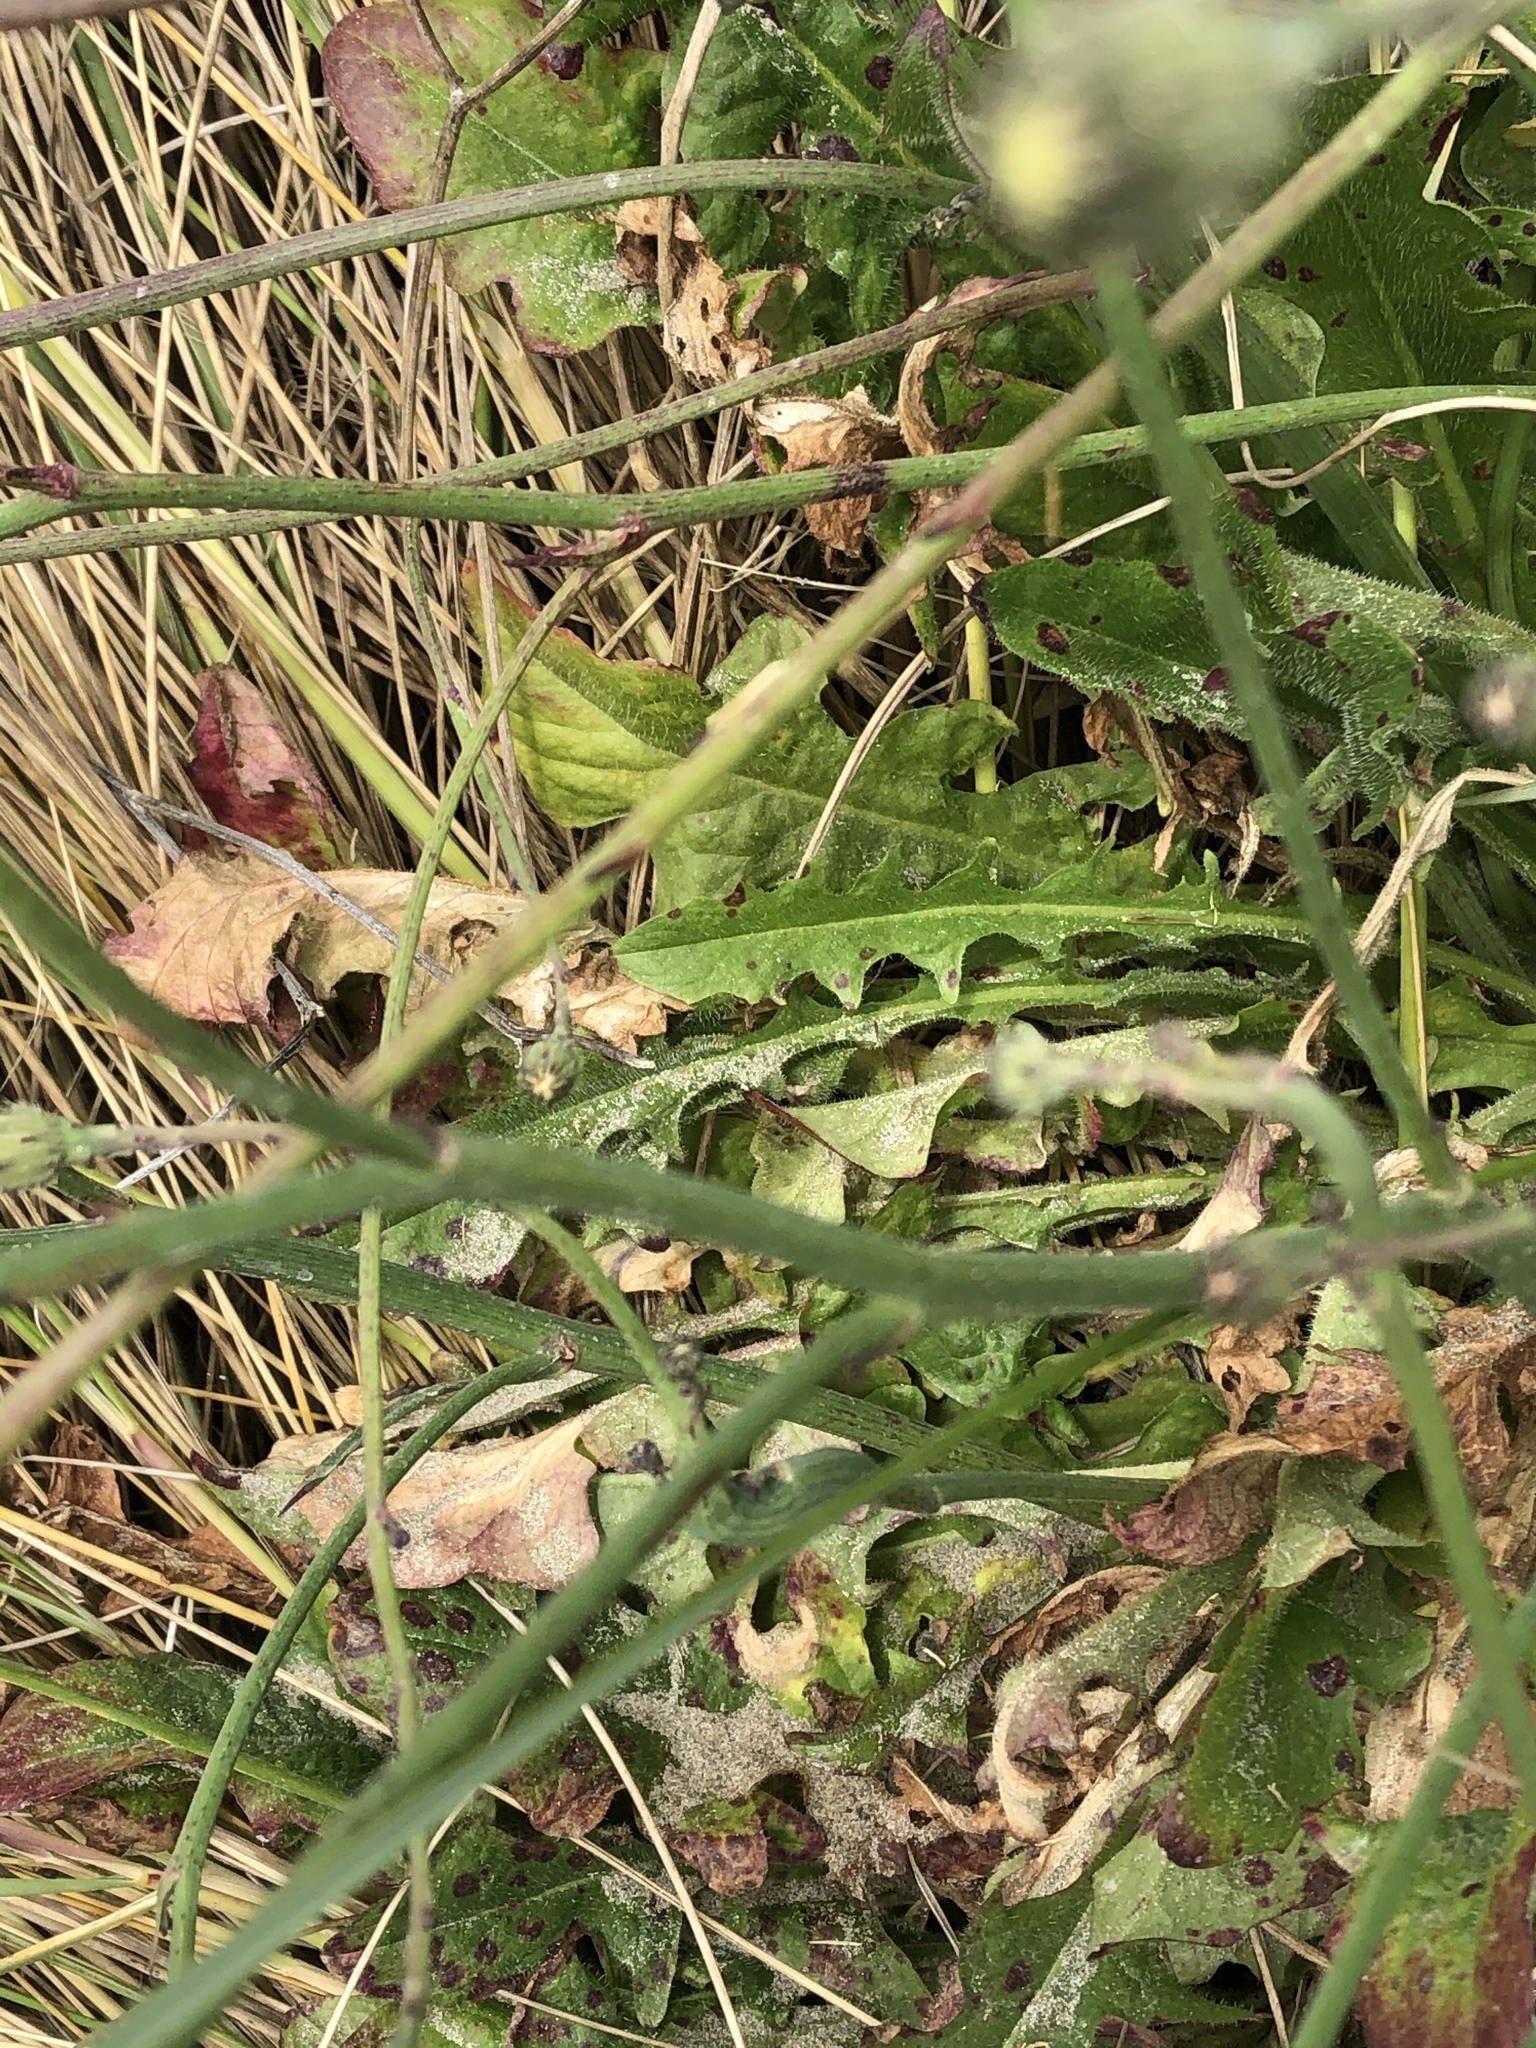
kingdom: Plantae
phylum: Tracheophyta
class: Magnoliopsida
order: Asterales
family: Asteraceae
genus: Hypochaeris
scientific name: Hypochaeris radicata
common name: Flatweed
